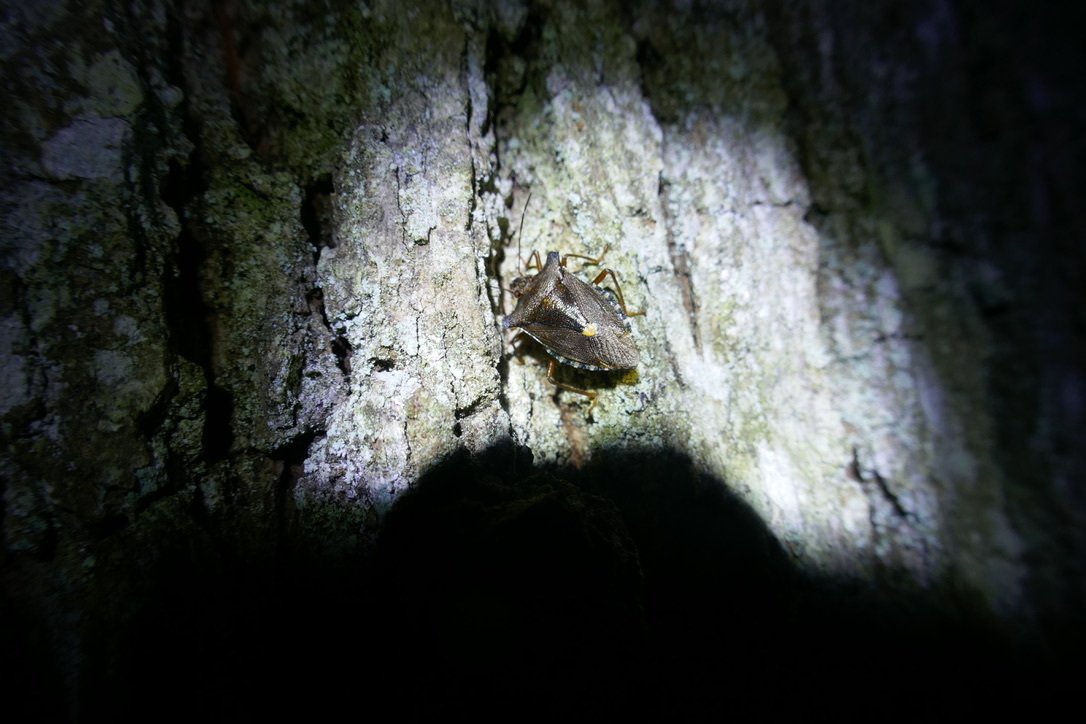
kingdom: Animalia
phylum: Arthropoda
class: Insecta
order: Hemiptera
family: Pentatomidae
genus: Pentatoma
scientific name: Pentatoma rufipes
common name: Forest bug
